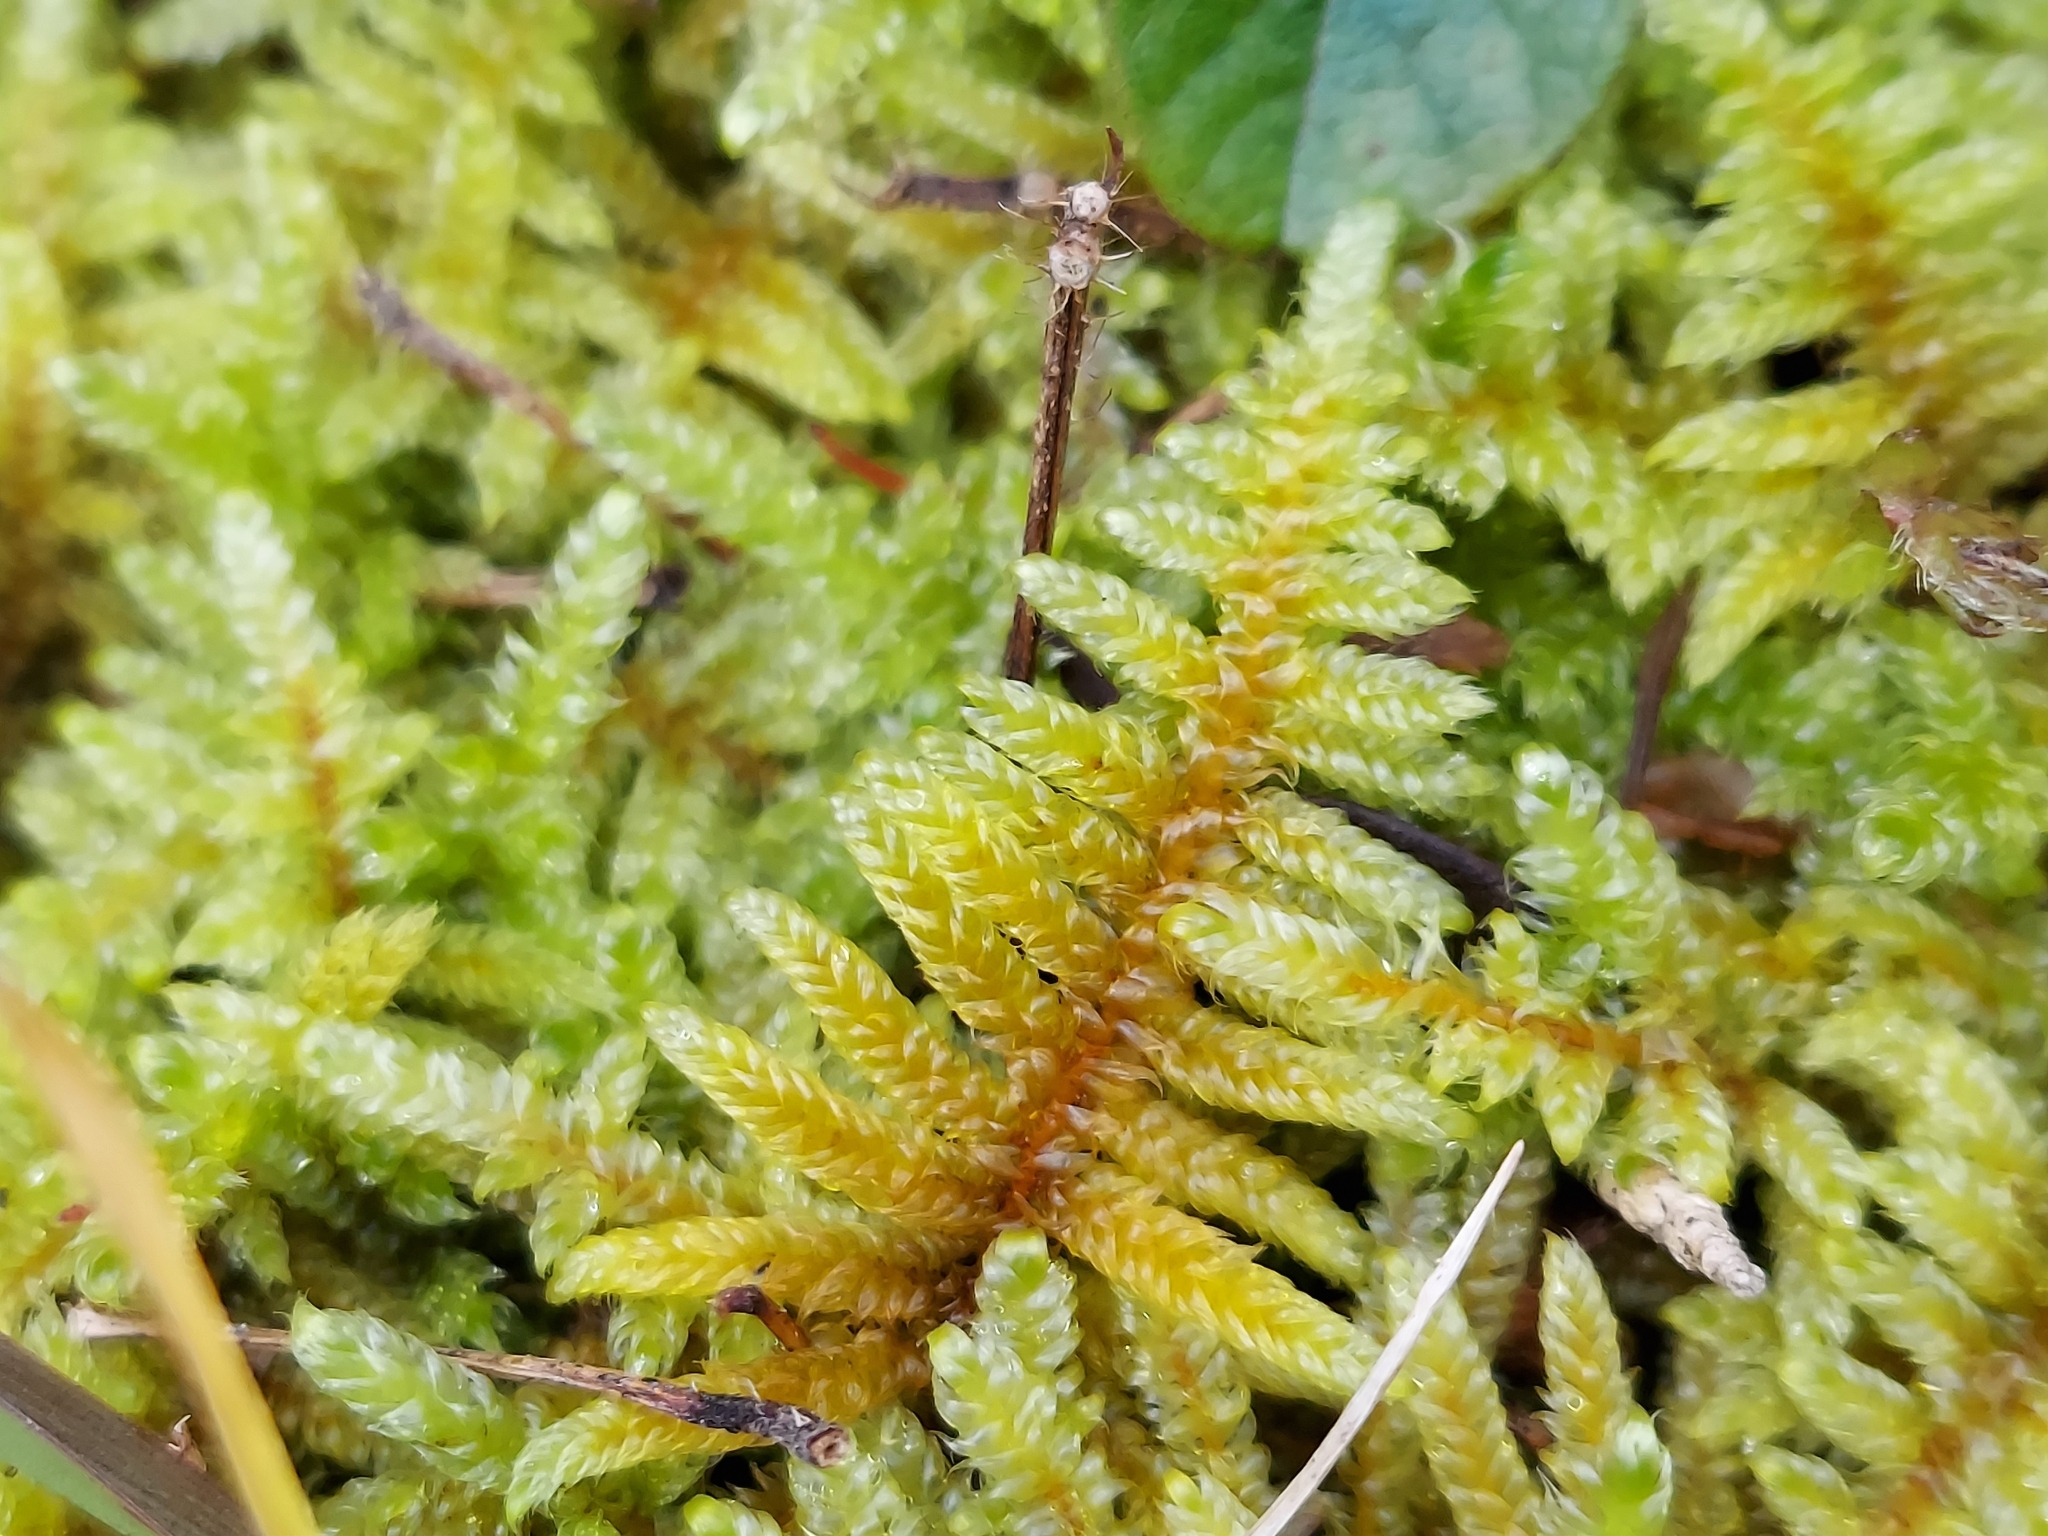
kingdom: Plantae
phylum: Bryophyta
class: Bryopsida
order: Hypnales
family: Hypnaceae
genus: Hypnum
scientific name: Hypnum plumaeforme
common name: Cypress-leaved plaitmoss
